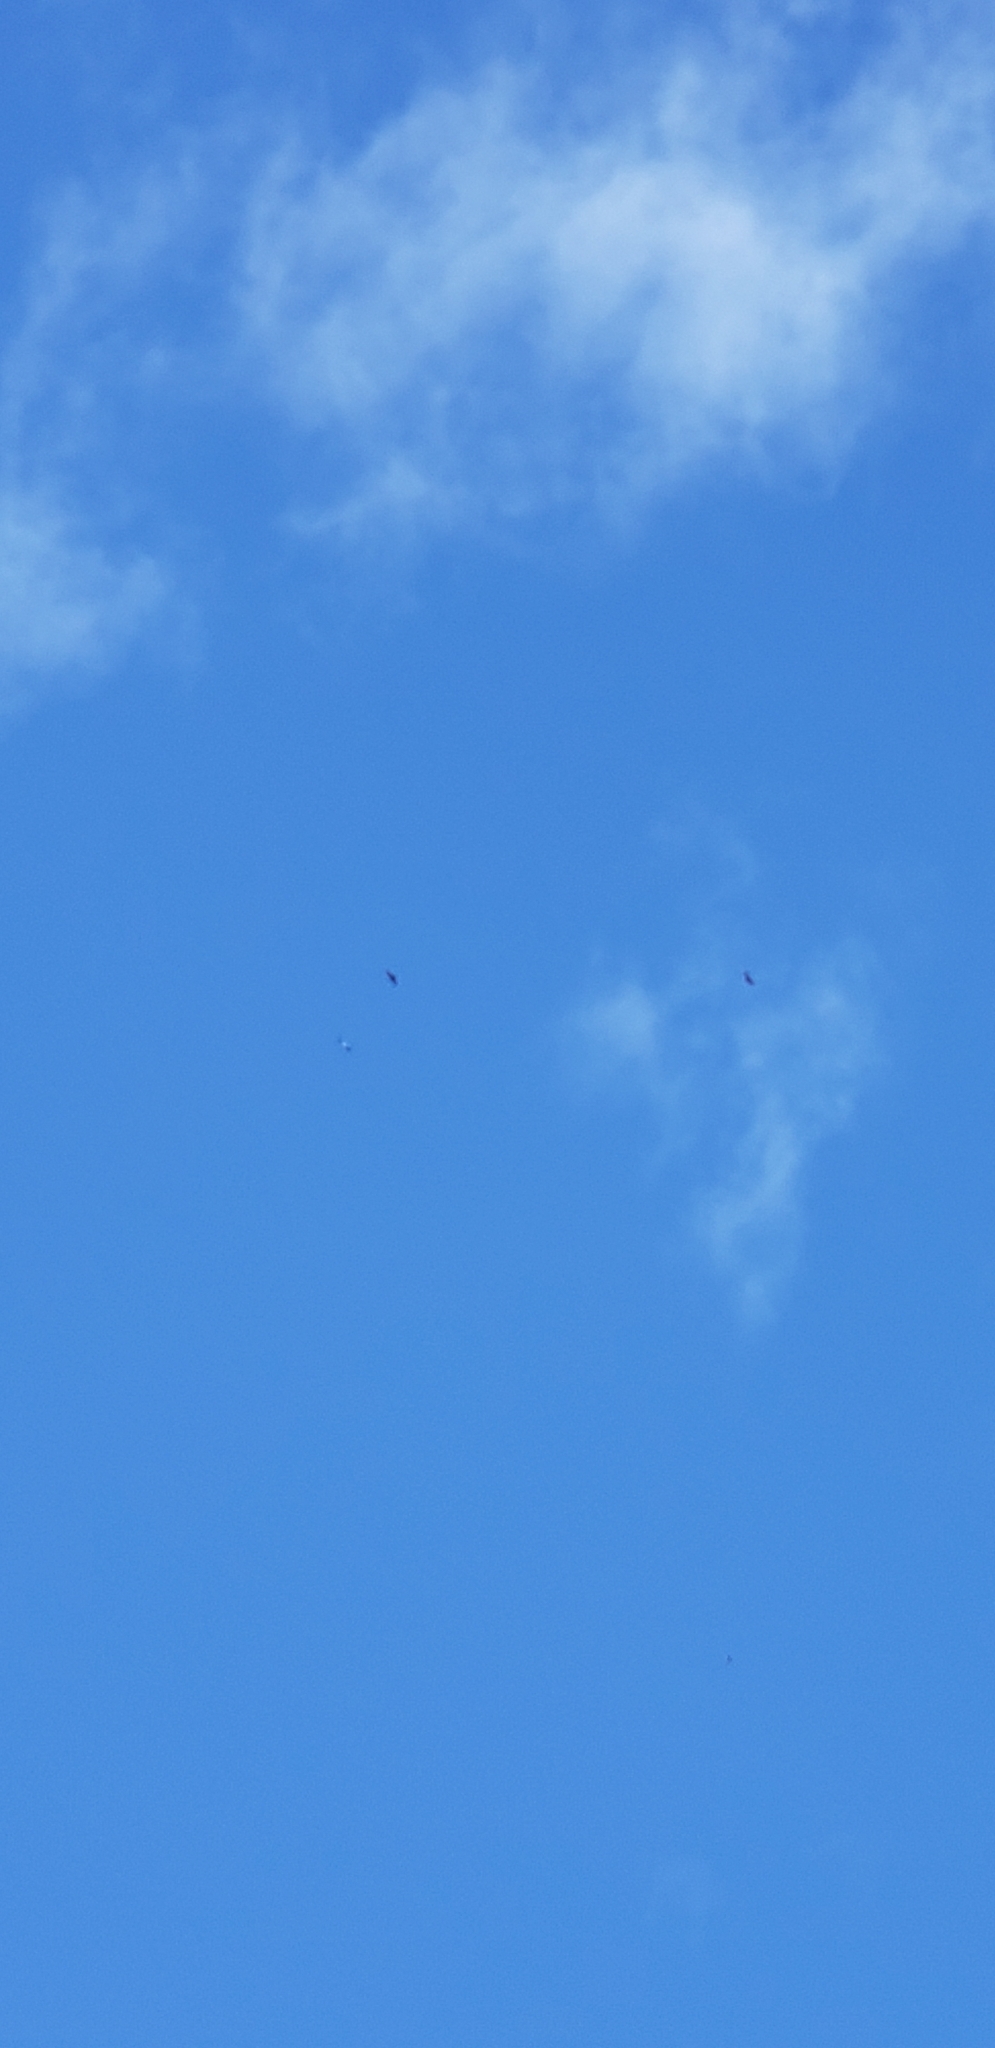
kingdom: Animalia
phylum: Chordata
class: Aves
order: Ciconiiformes
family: Ciconiidae
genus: Mycteria
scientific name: Mycteria americana
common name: Wood stork
